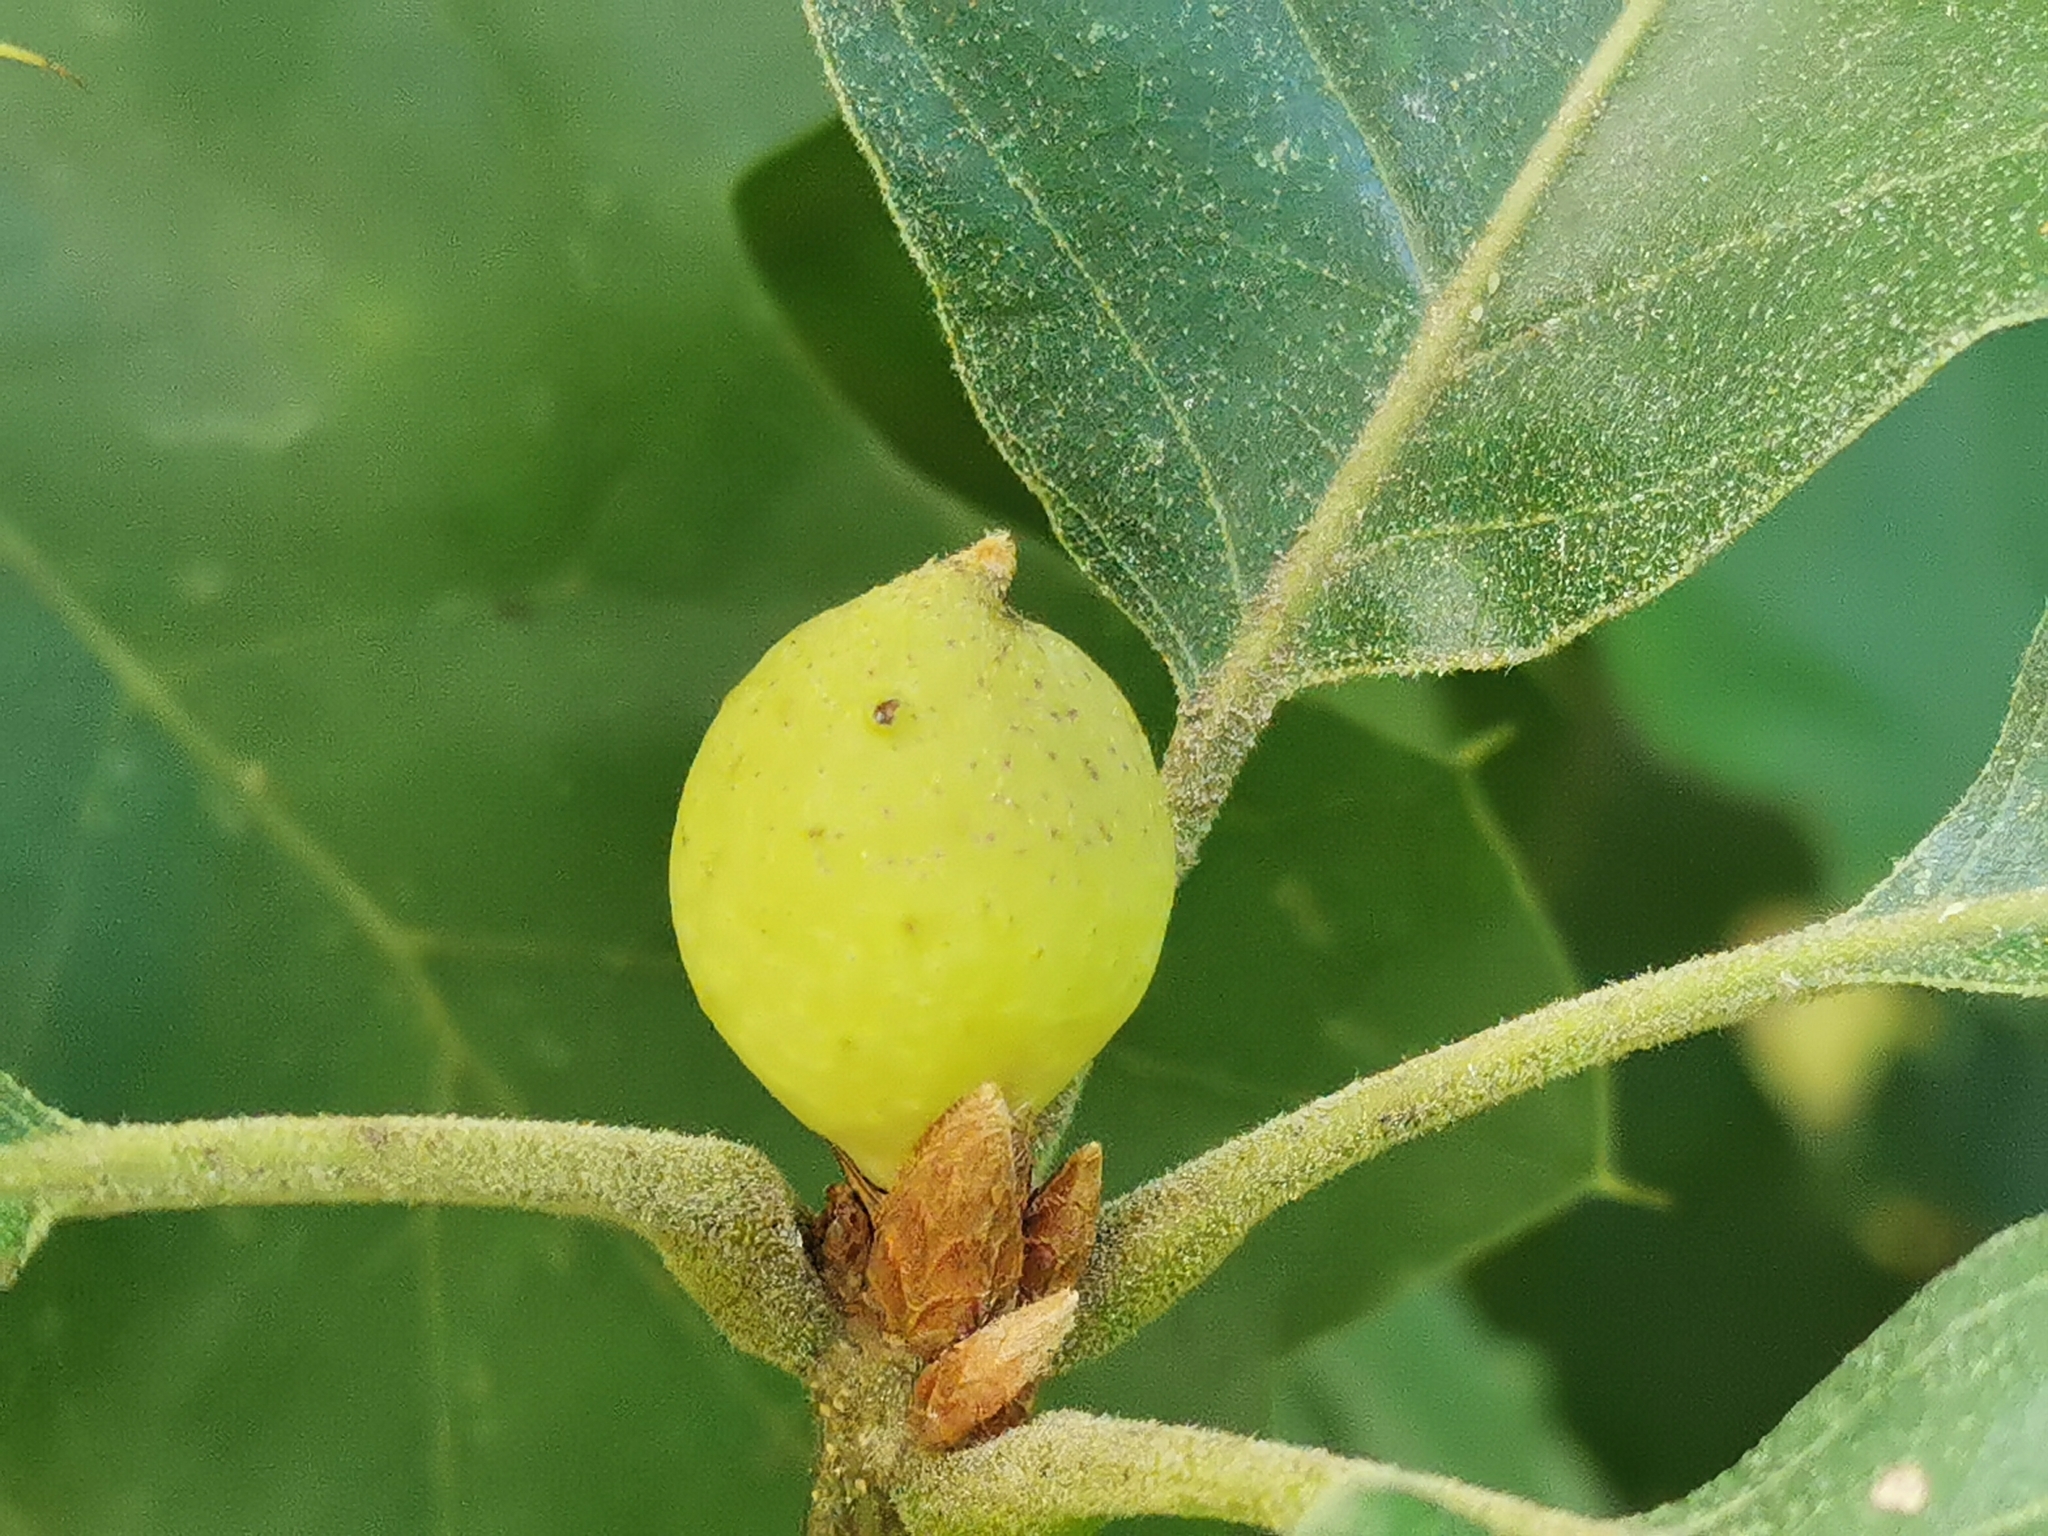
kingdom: Animalia
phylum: Arthropoda
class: Insecta
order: Hymenoptera
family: Cynipidae
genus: Amphibolips
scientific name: Amphibolips
